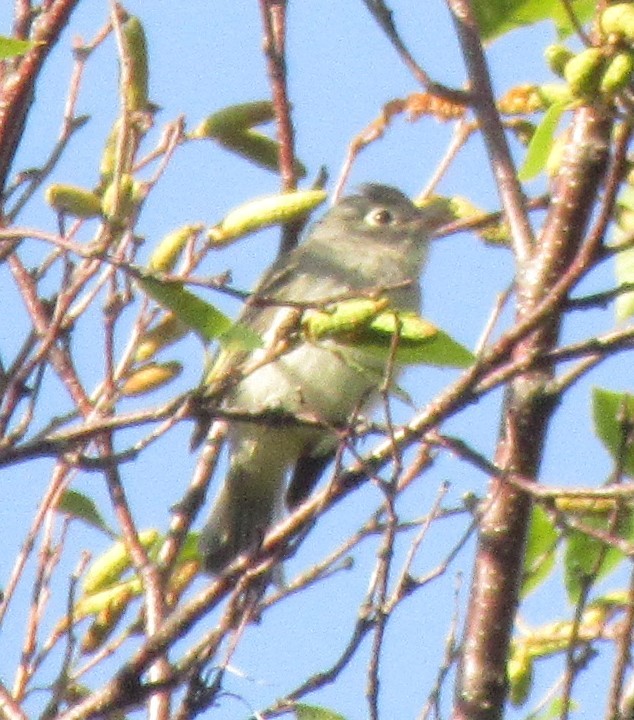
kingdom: Animalia
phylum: Chordata
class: Aves
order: Passeriformes
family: Regulidae
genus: Regulus
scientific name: Regulus calendula
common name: Ruby-crowned kinglet
